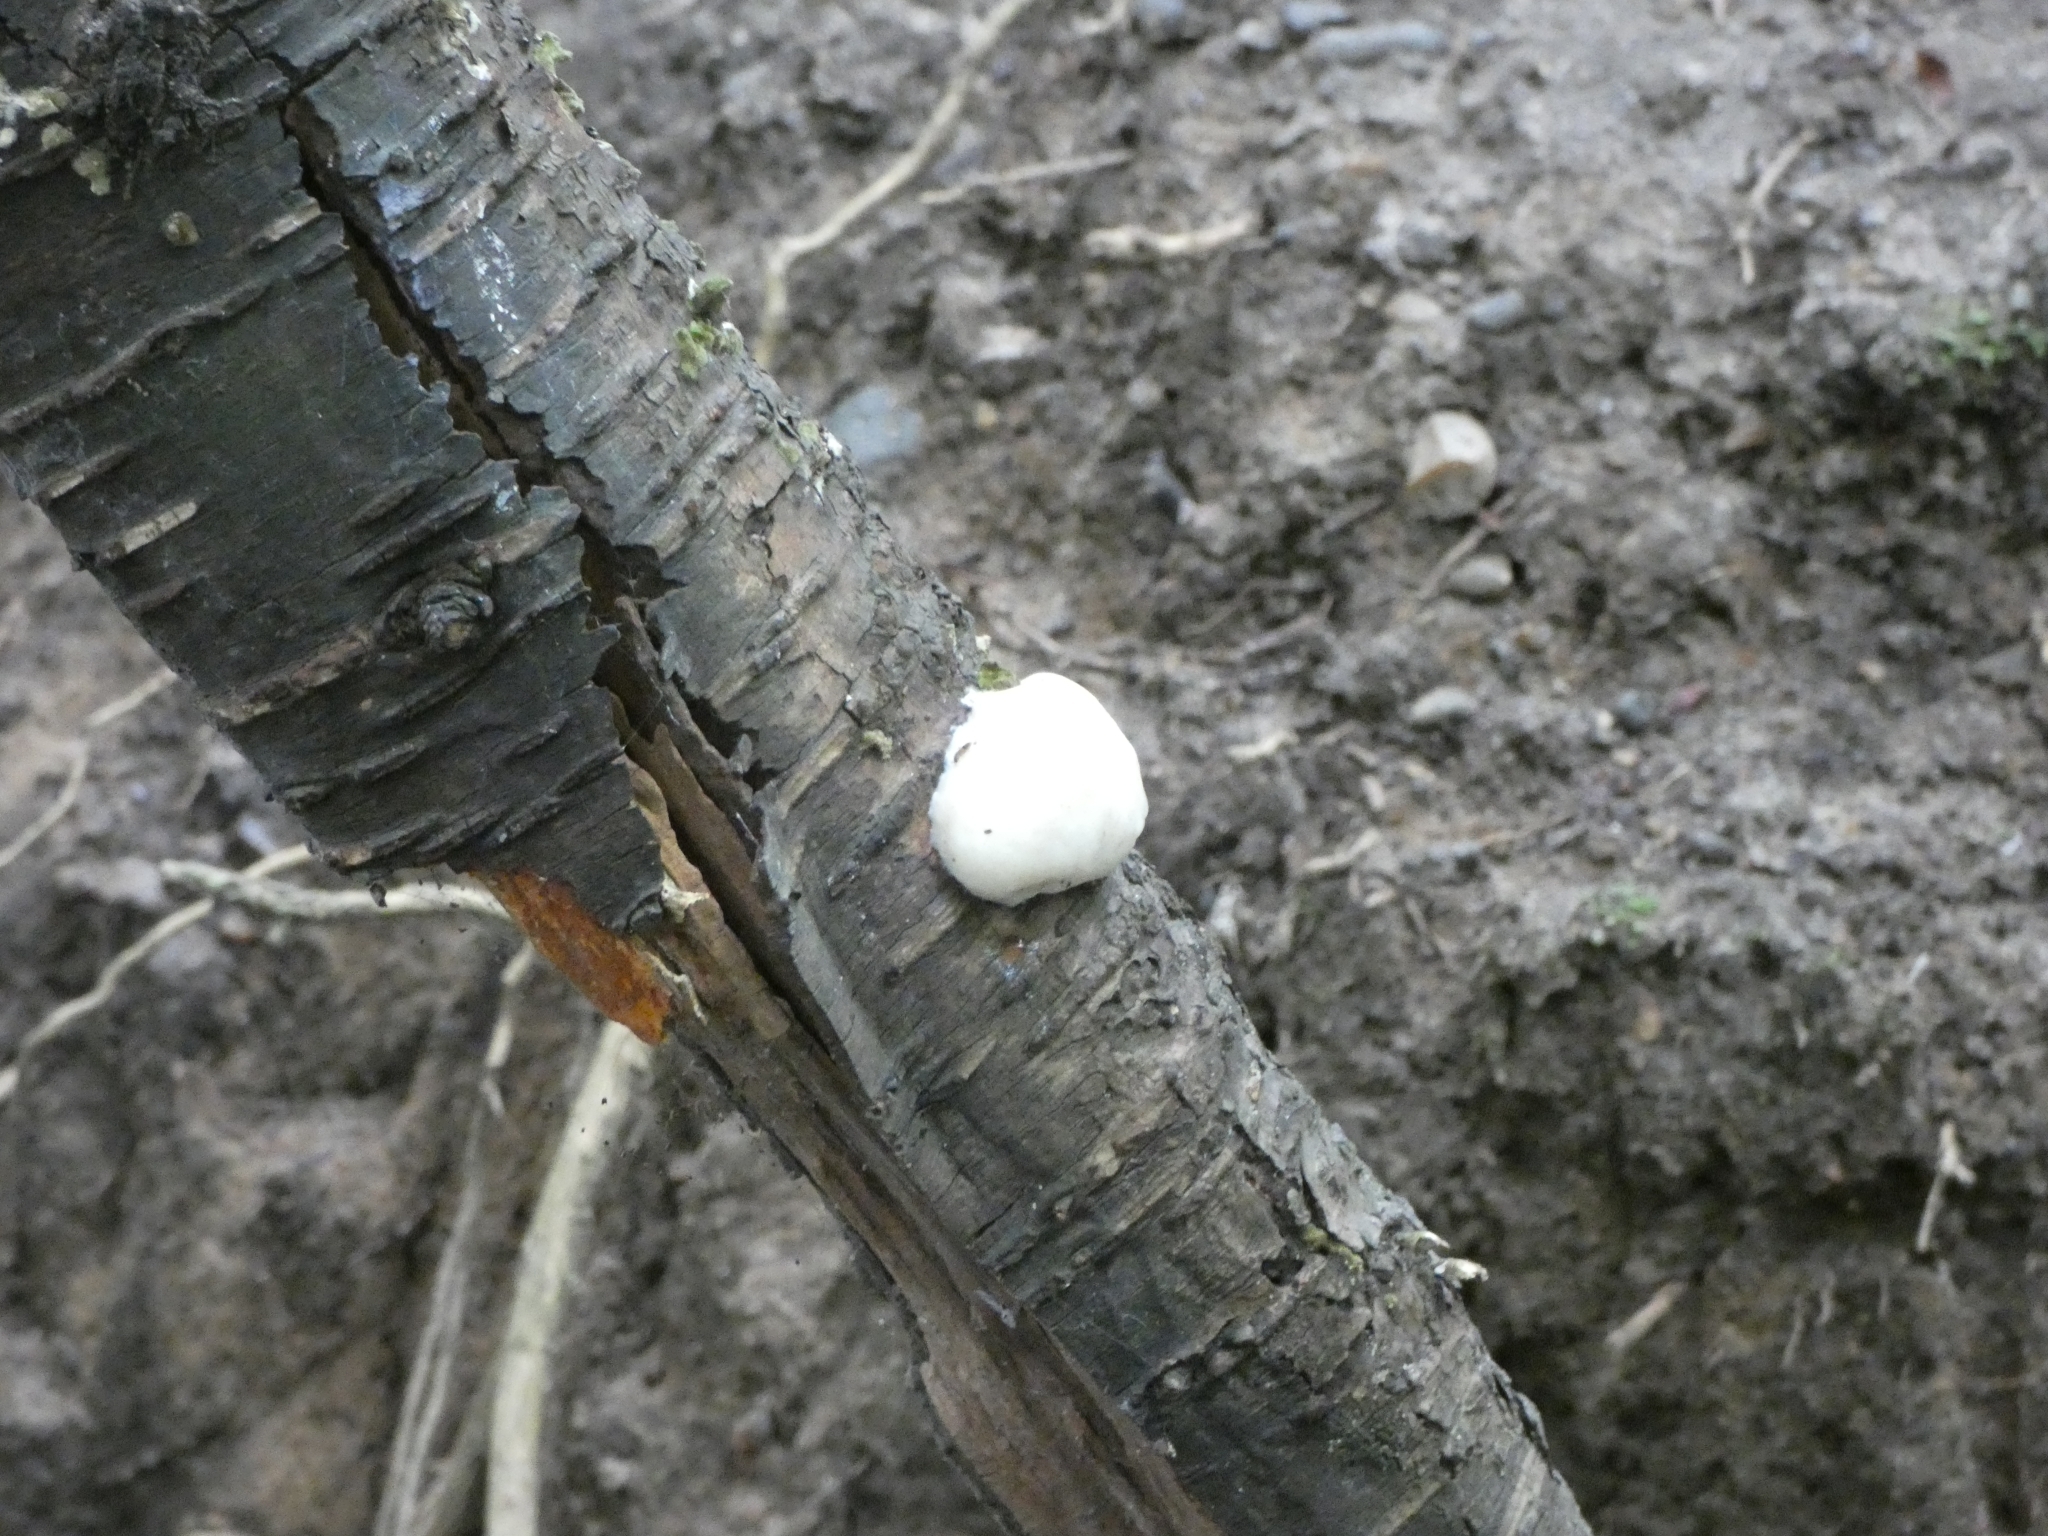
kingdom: Protozoa
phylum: Mycetozoa
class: Myxomycetes
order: Cribrariales
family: Tubiferaceae
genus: Reticularia
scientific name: Reticularia lycoperdon
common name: False puffball
